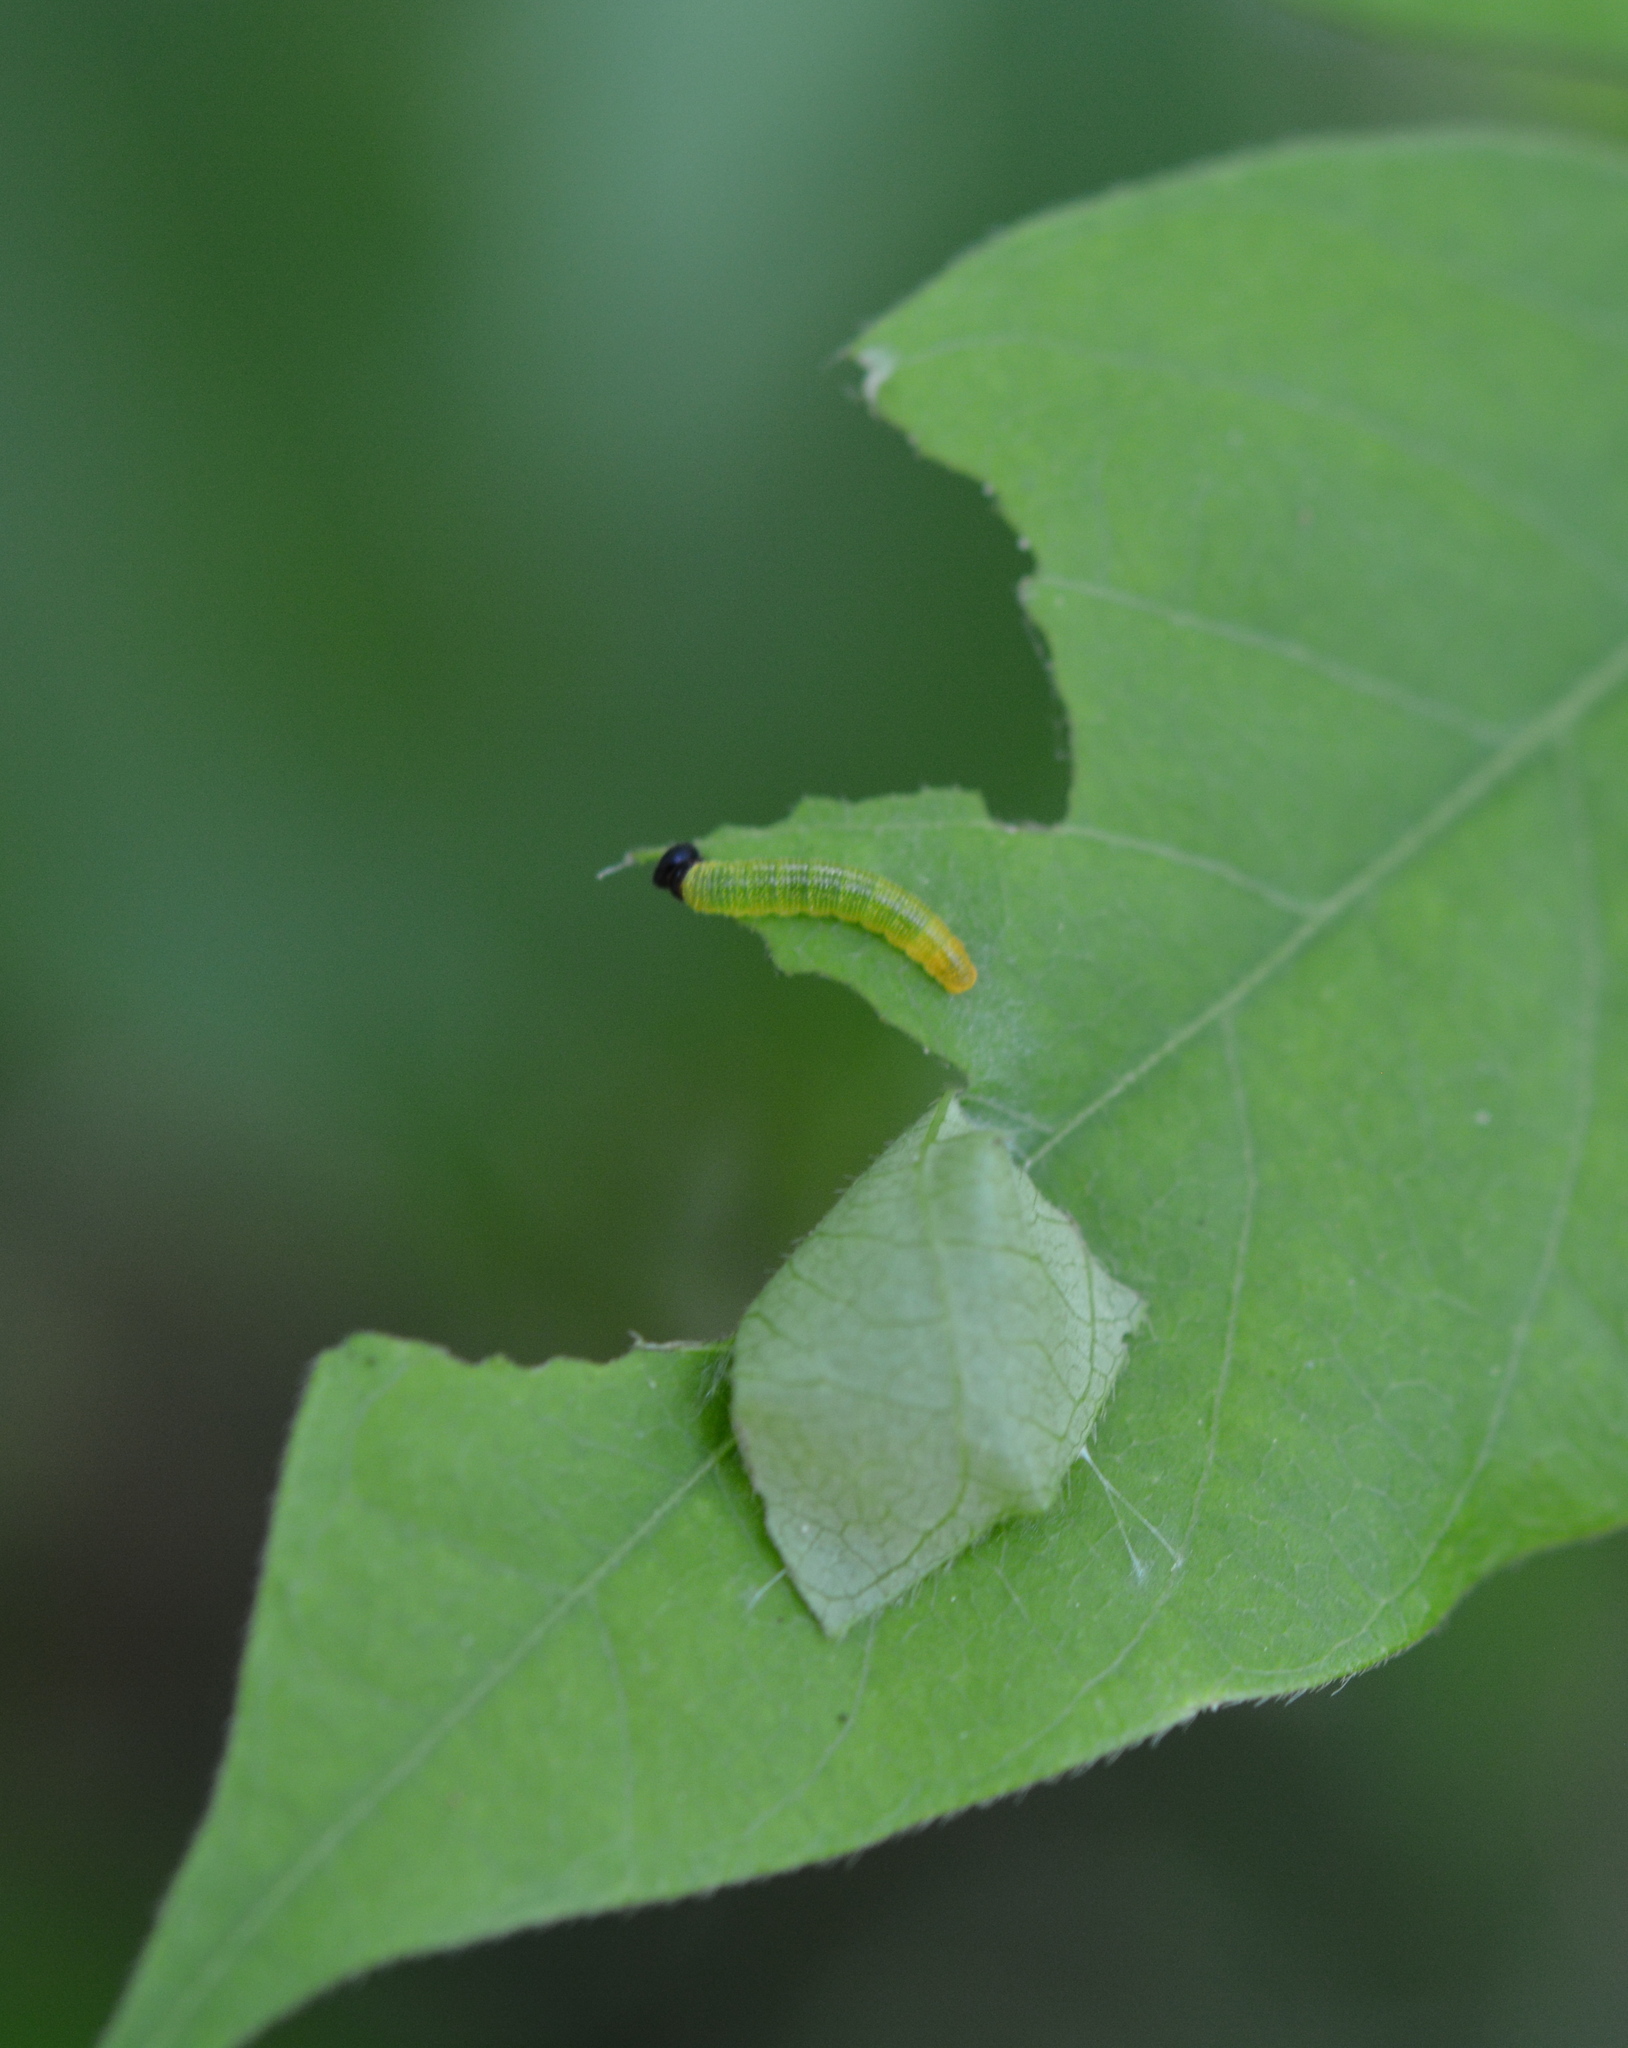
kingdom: Animalia
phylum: Arthropoda
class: Insecta
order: Lepidoptera
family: Hesperiidae
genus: Epargyreus
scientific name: Epargyreus clarus
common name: Silver-spotted skipper
